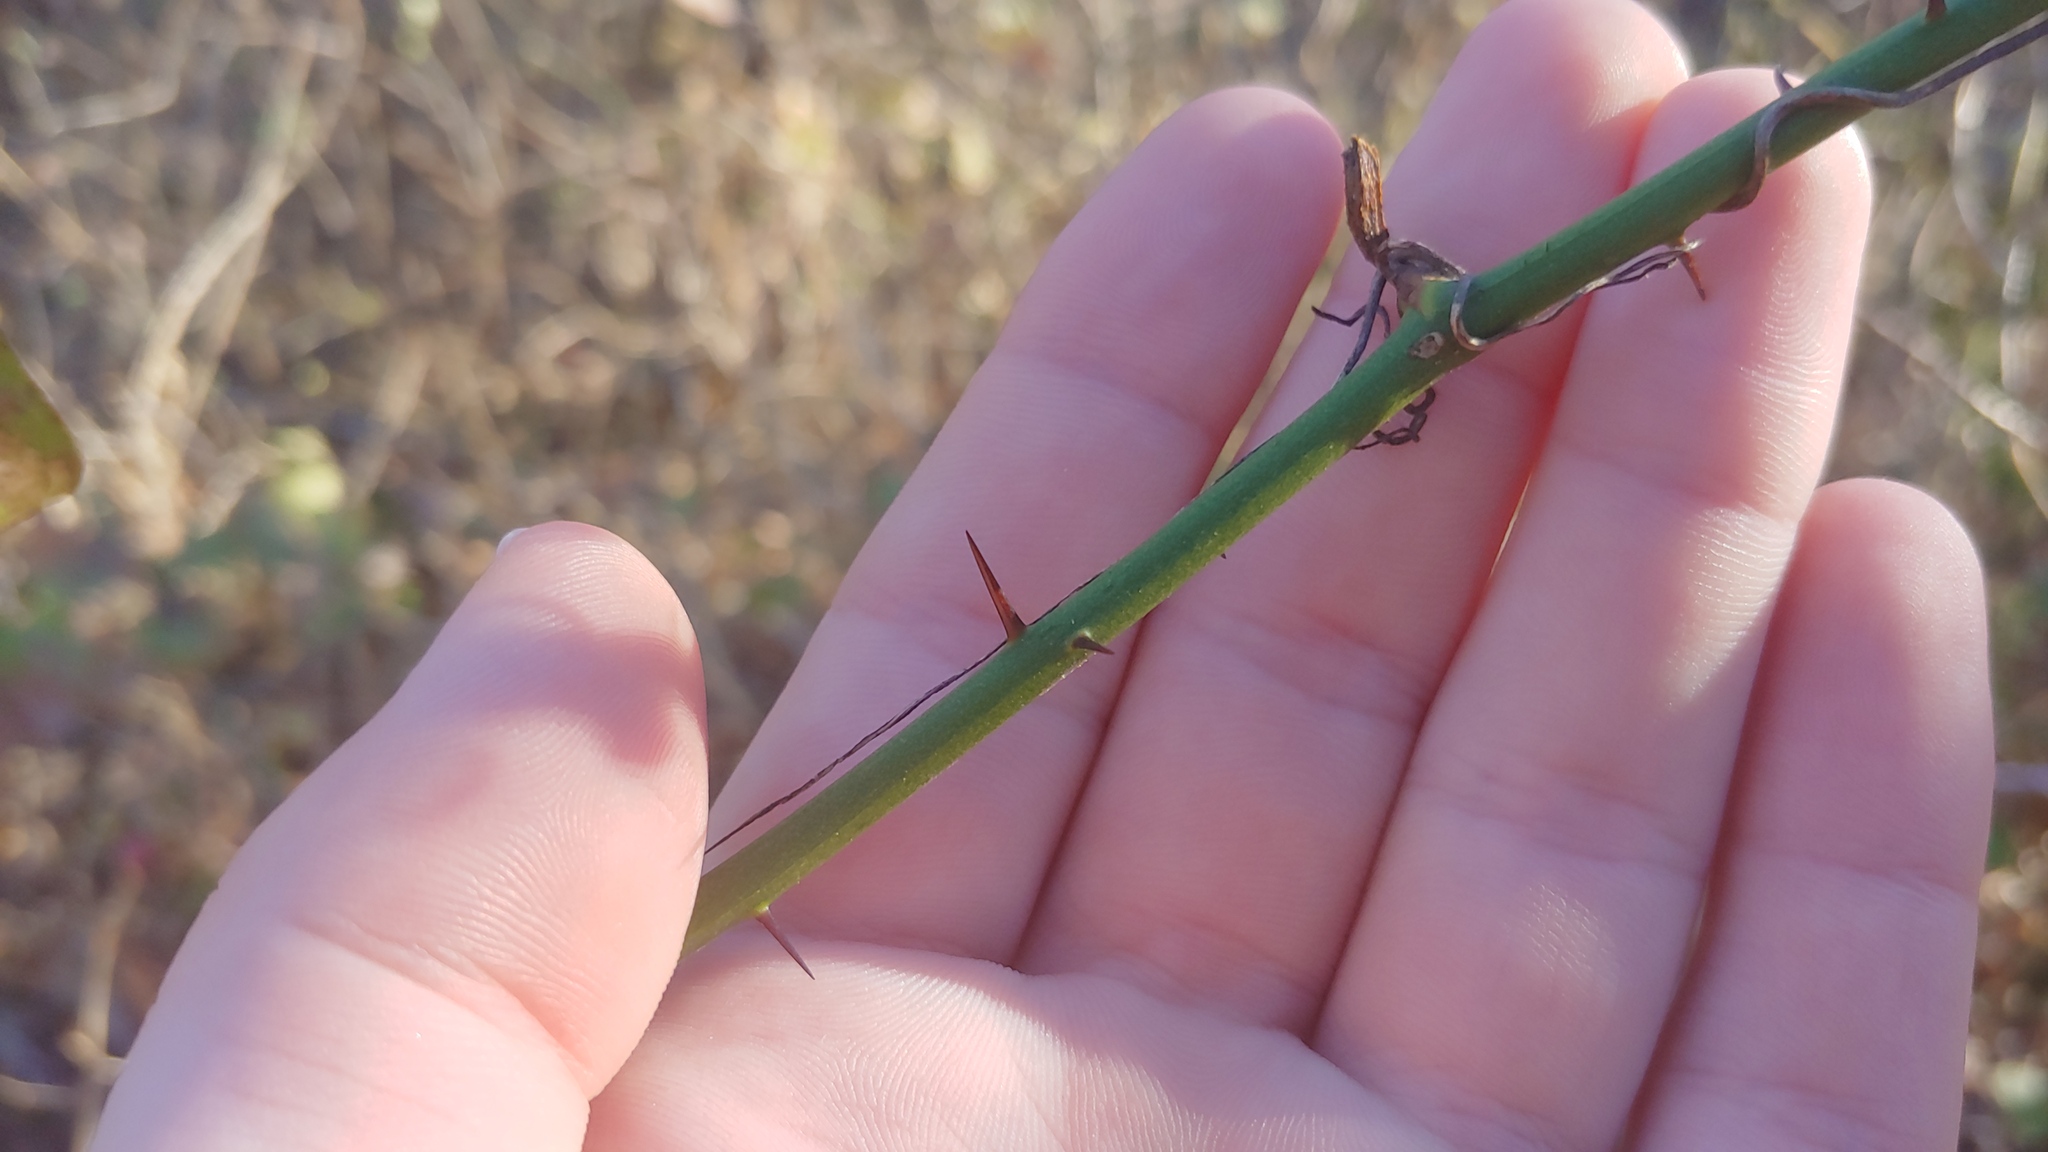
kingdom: Plantae
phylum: Tracheophyta
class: Liliopsida
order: Liliales
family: Smilacaceae
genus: Smilax
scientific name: Smilax tamnoides
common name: Hellfetter
